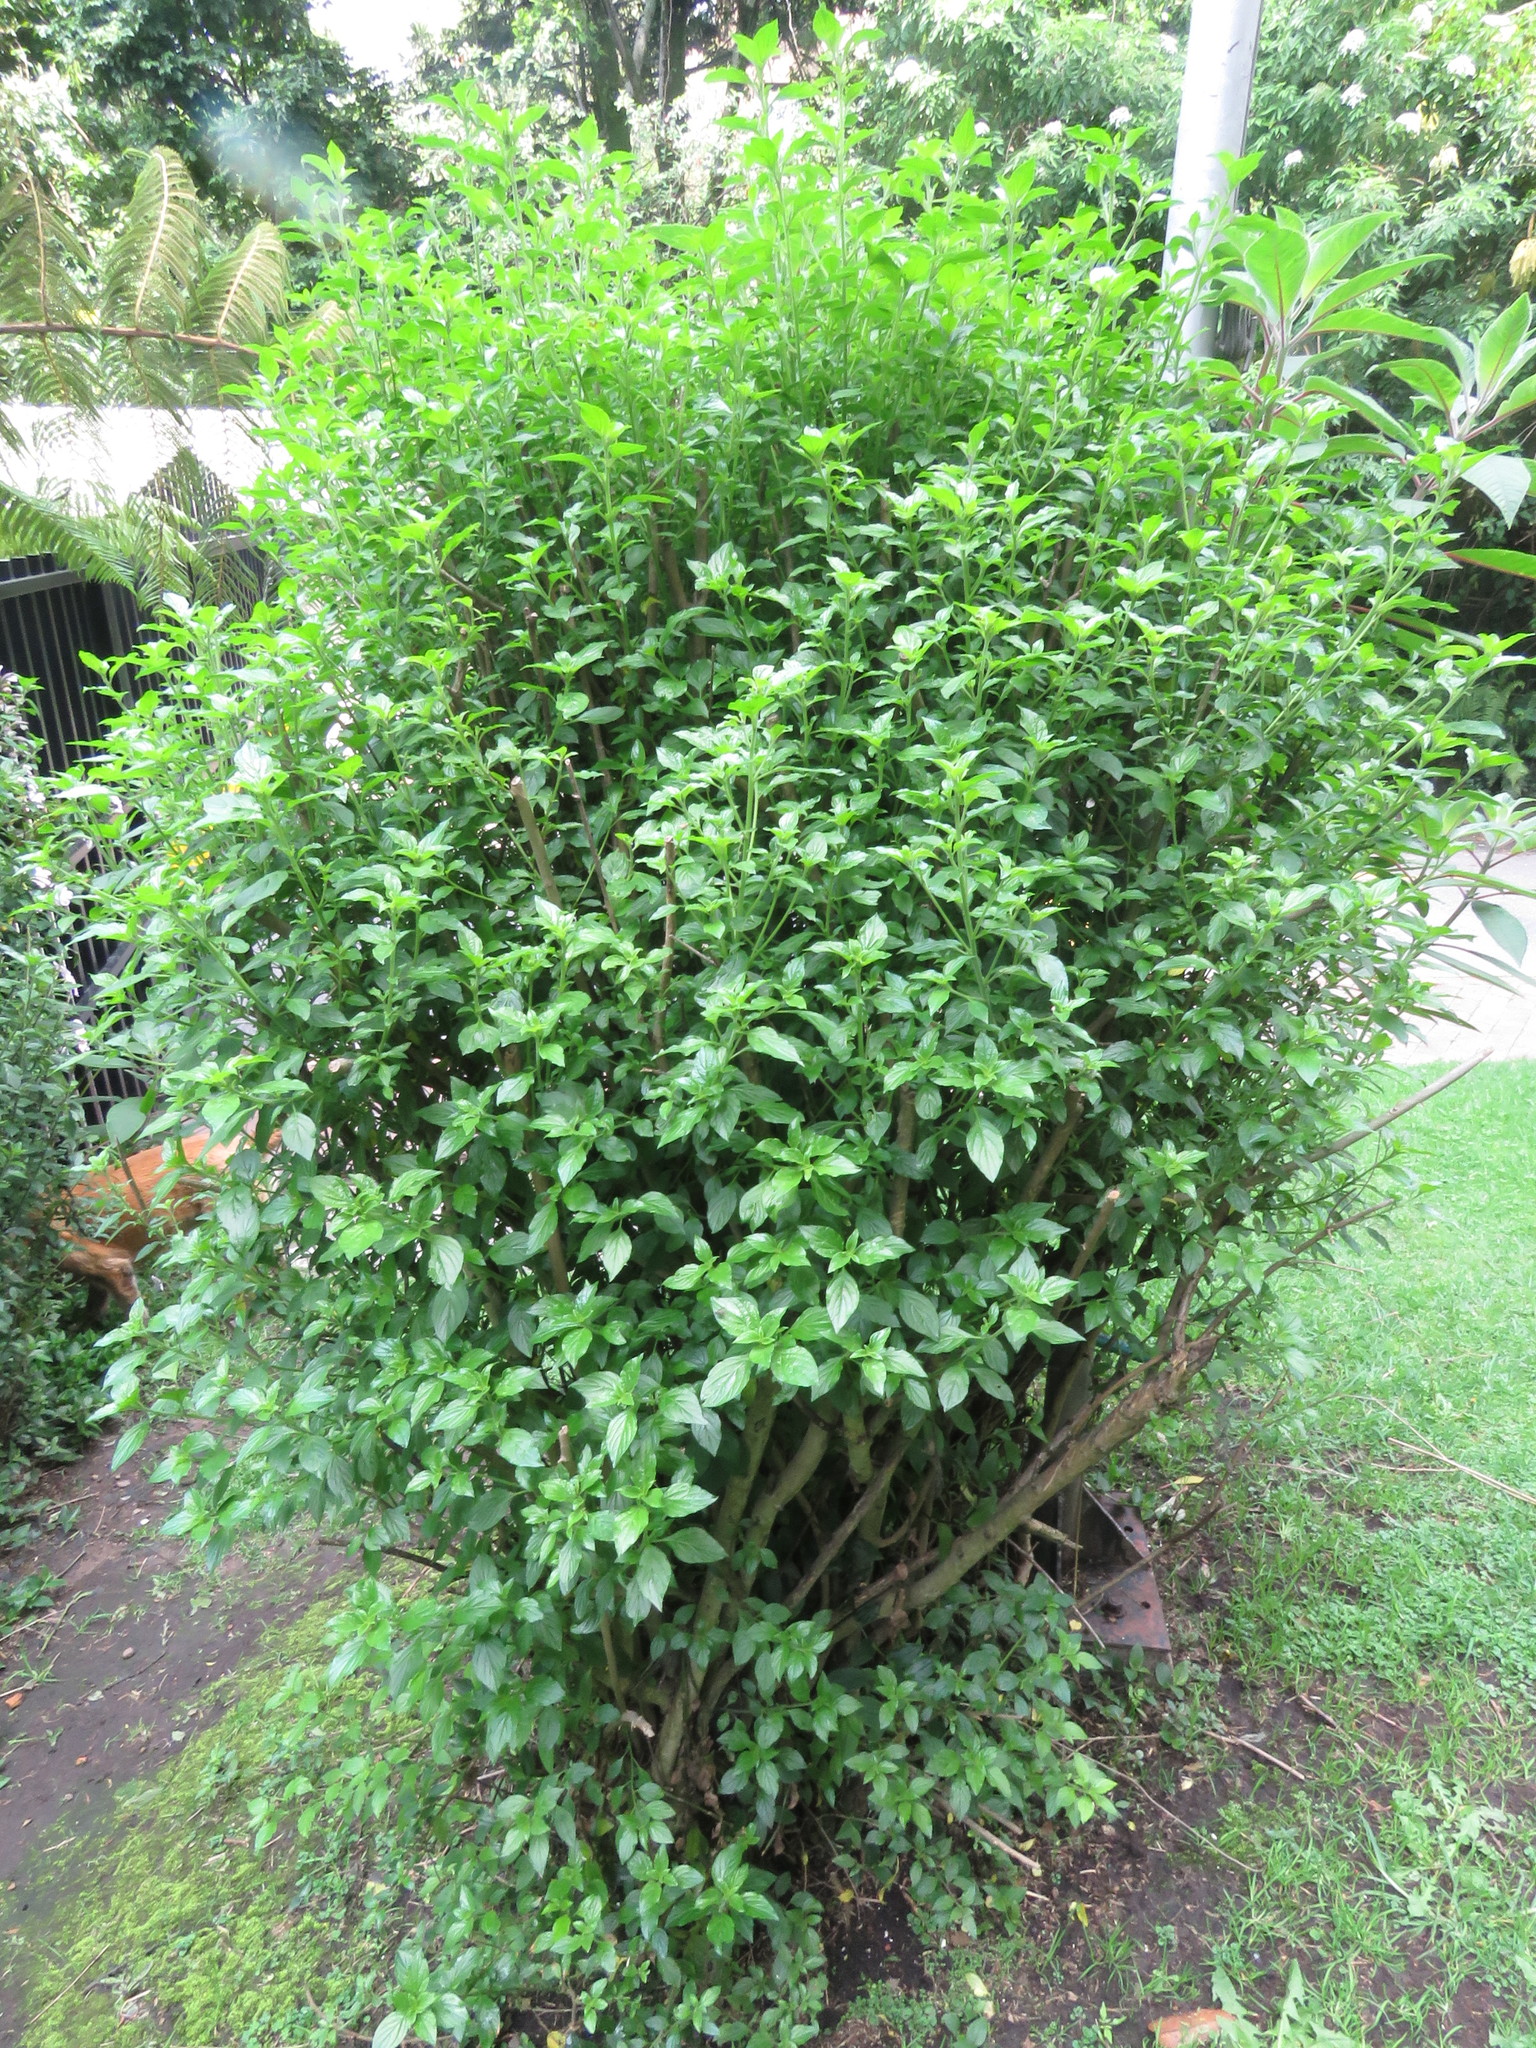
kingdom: Plantae
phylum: Tracheophyta
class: Magnoliopsida
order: Solanales
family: Solanaceae
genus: Streptosolen
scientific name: Streptosolen jamesonii
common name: Marmalade bush
